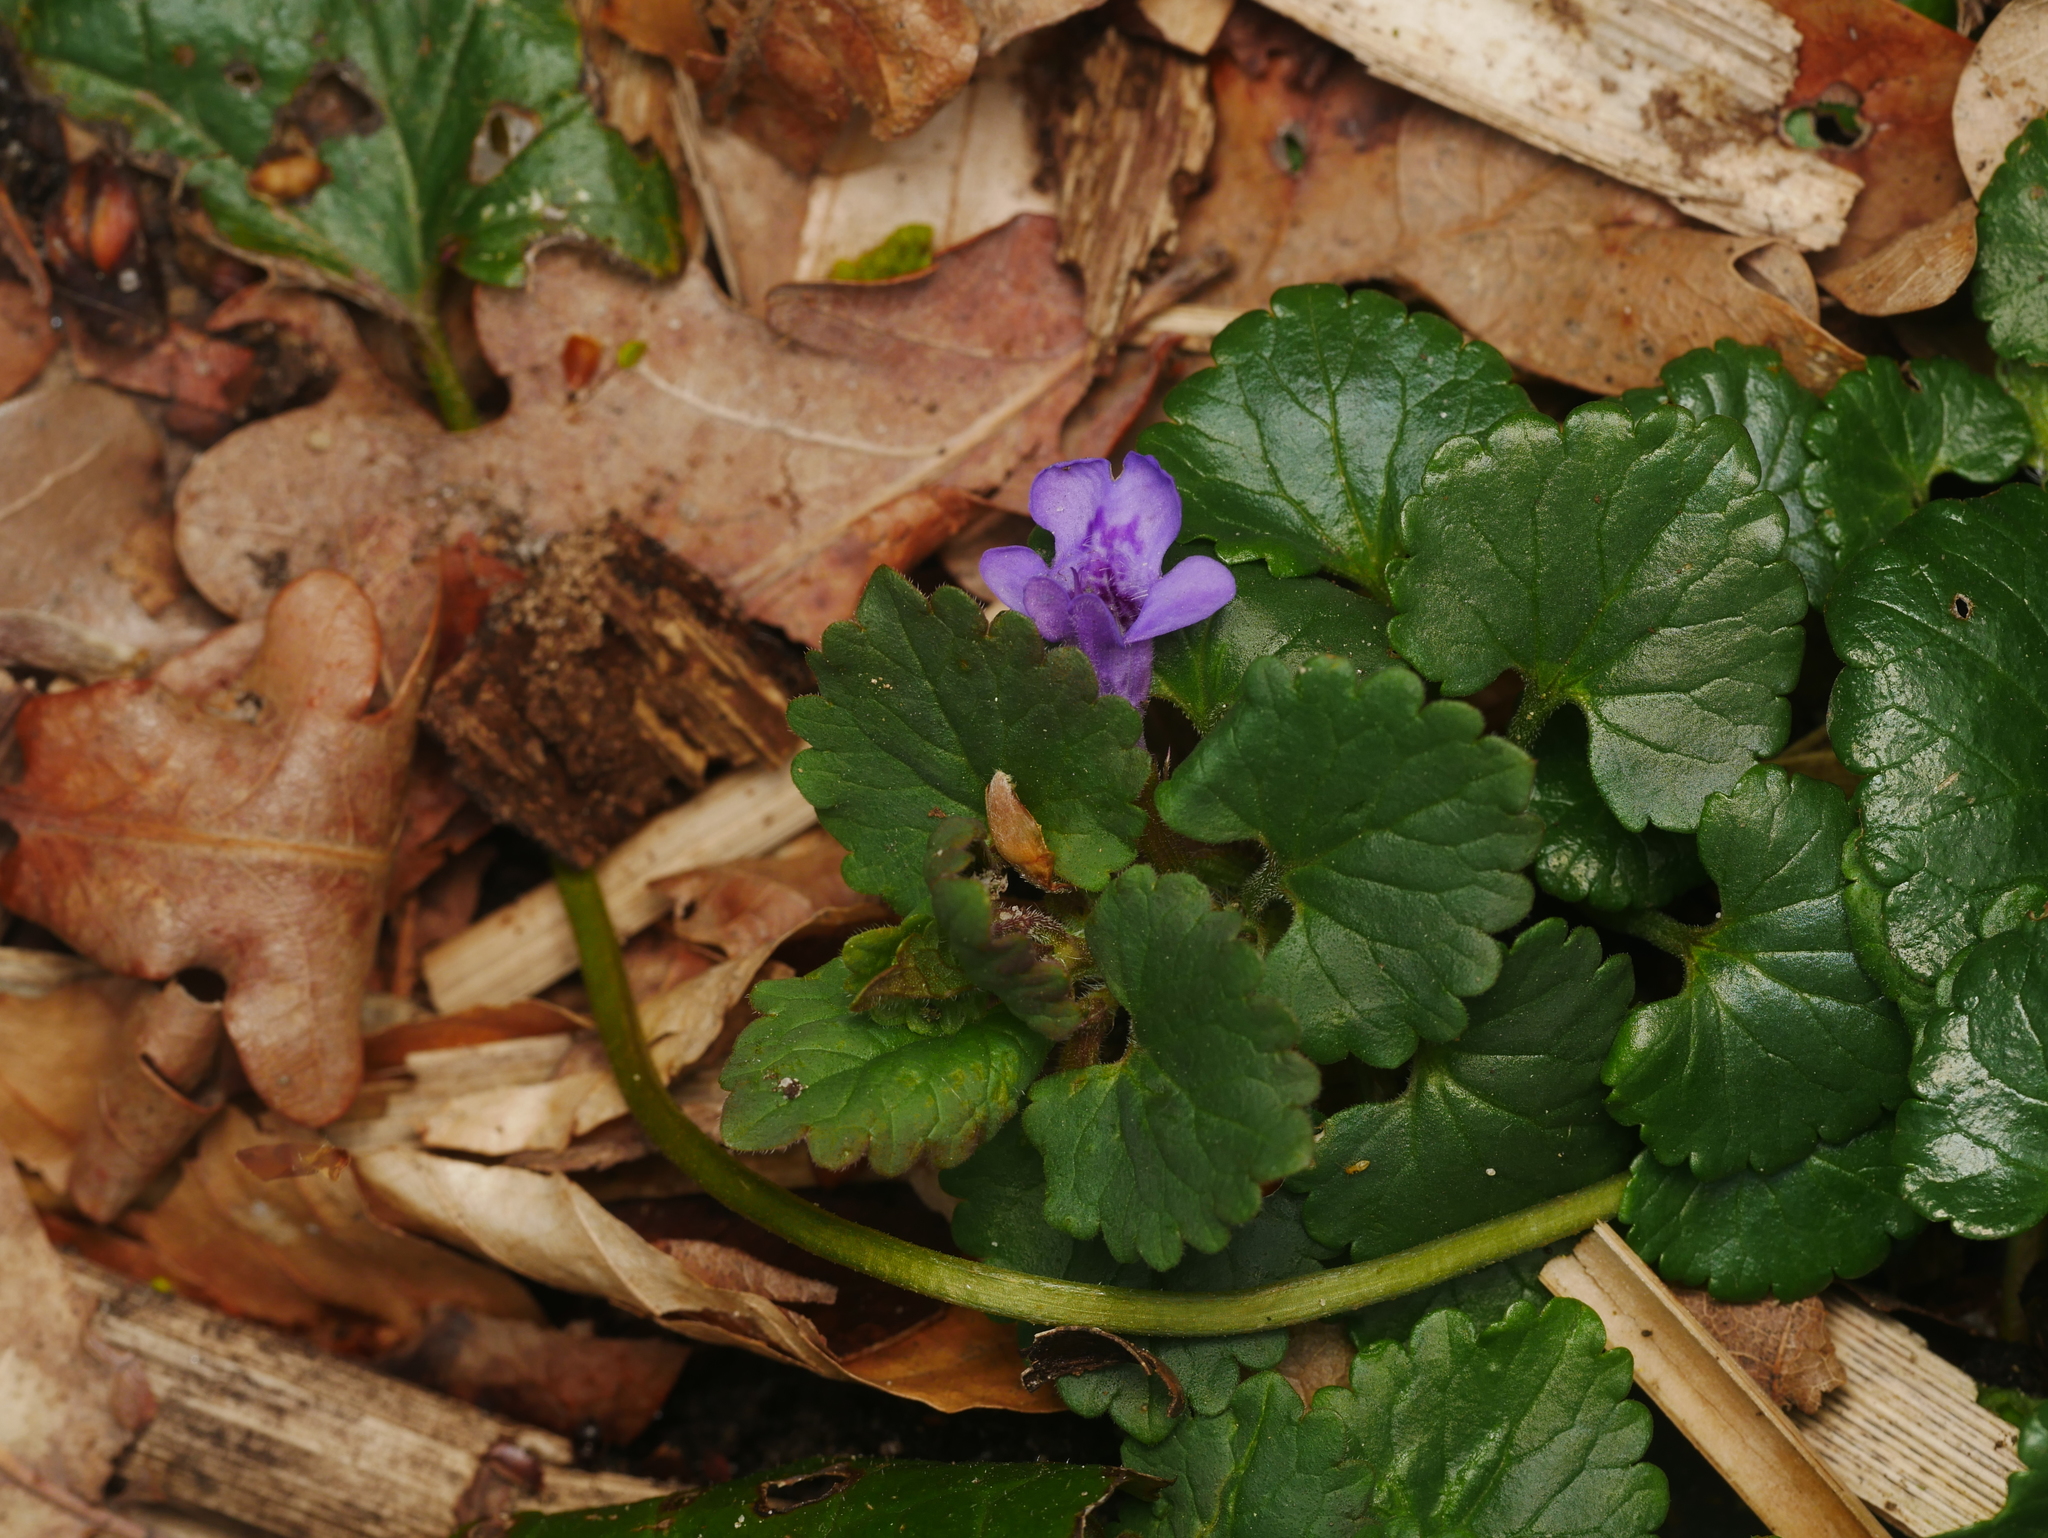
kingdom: Plantae
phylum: Tracheophyta
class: Magnoliopsida
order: Lamiales
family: Lamiaceae
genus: Glechoma
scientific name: Glechoma hederacea
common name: Ground ivy
